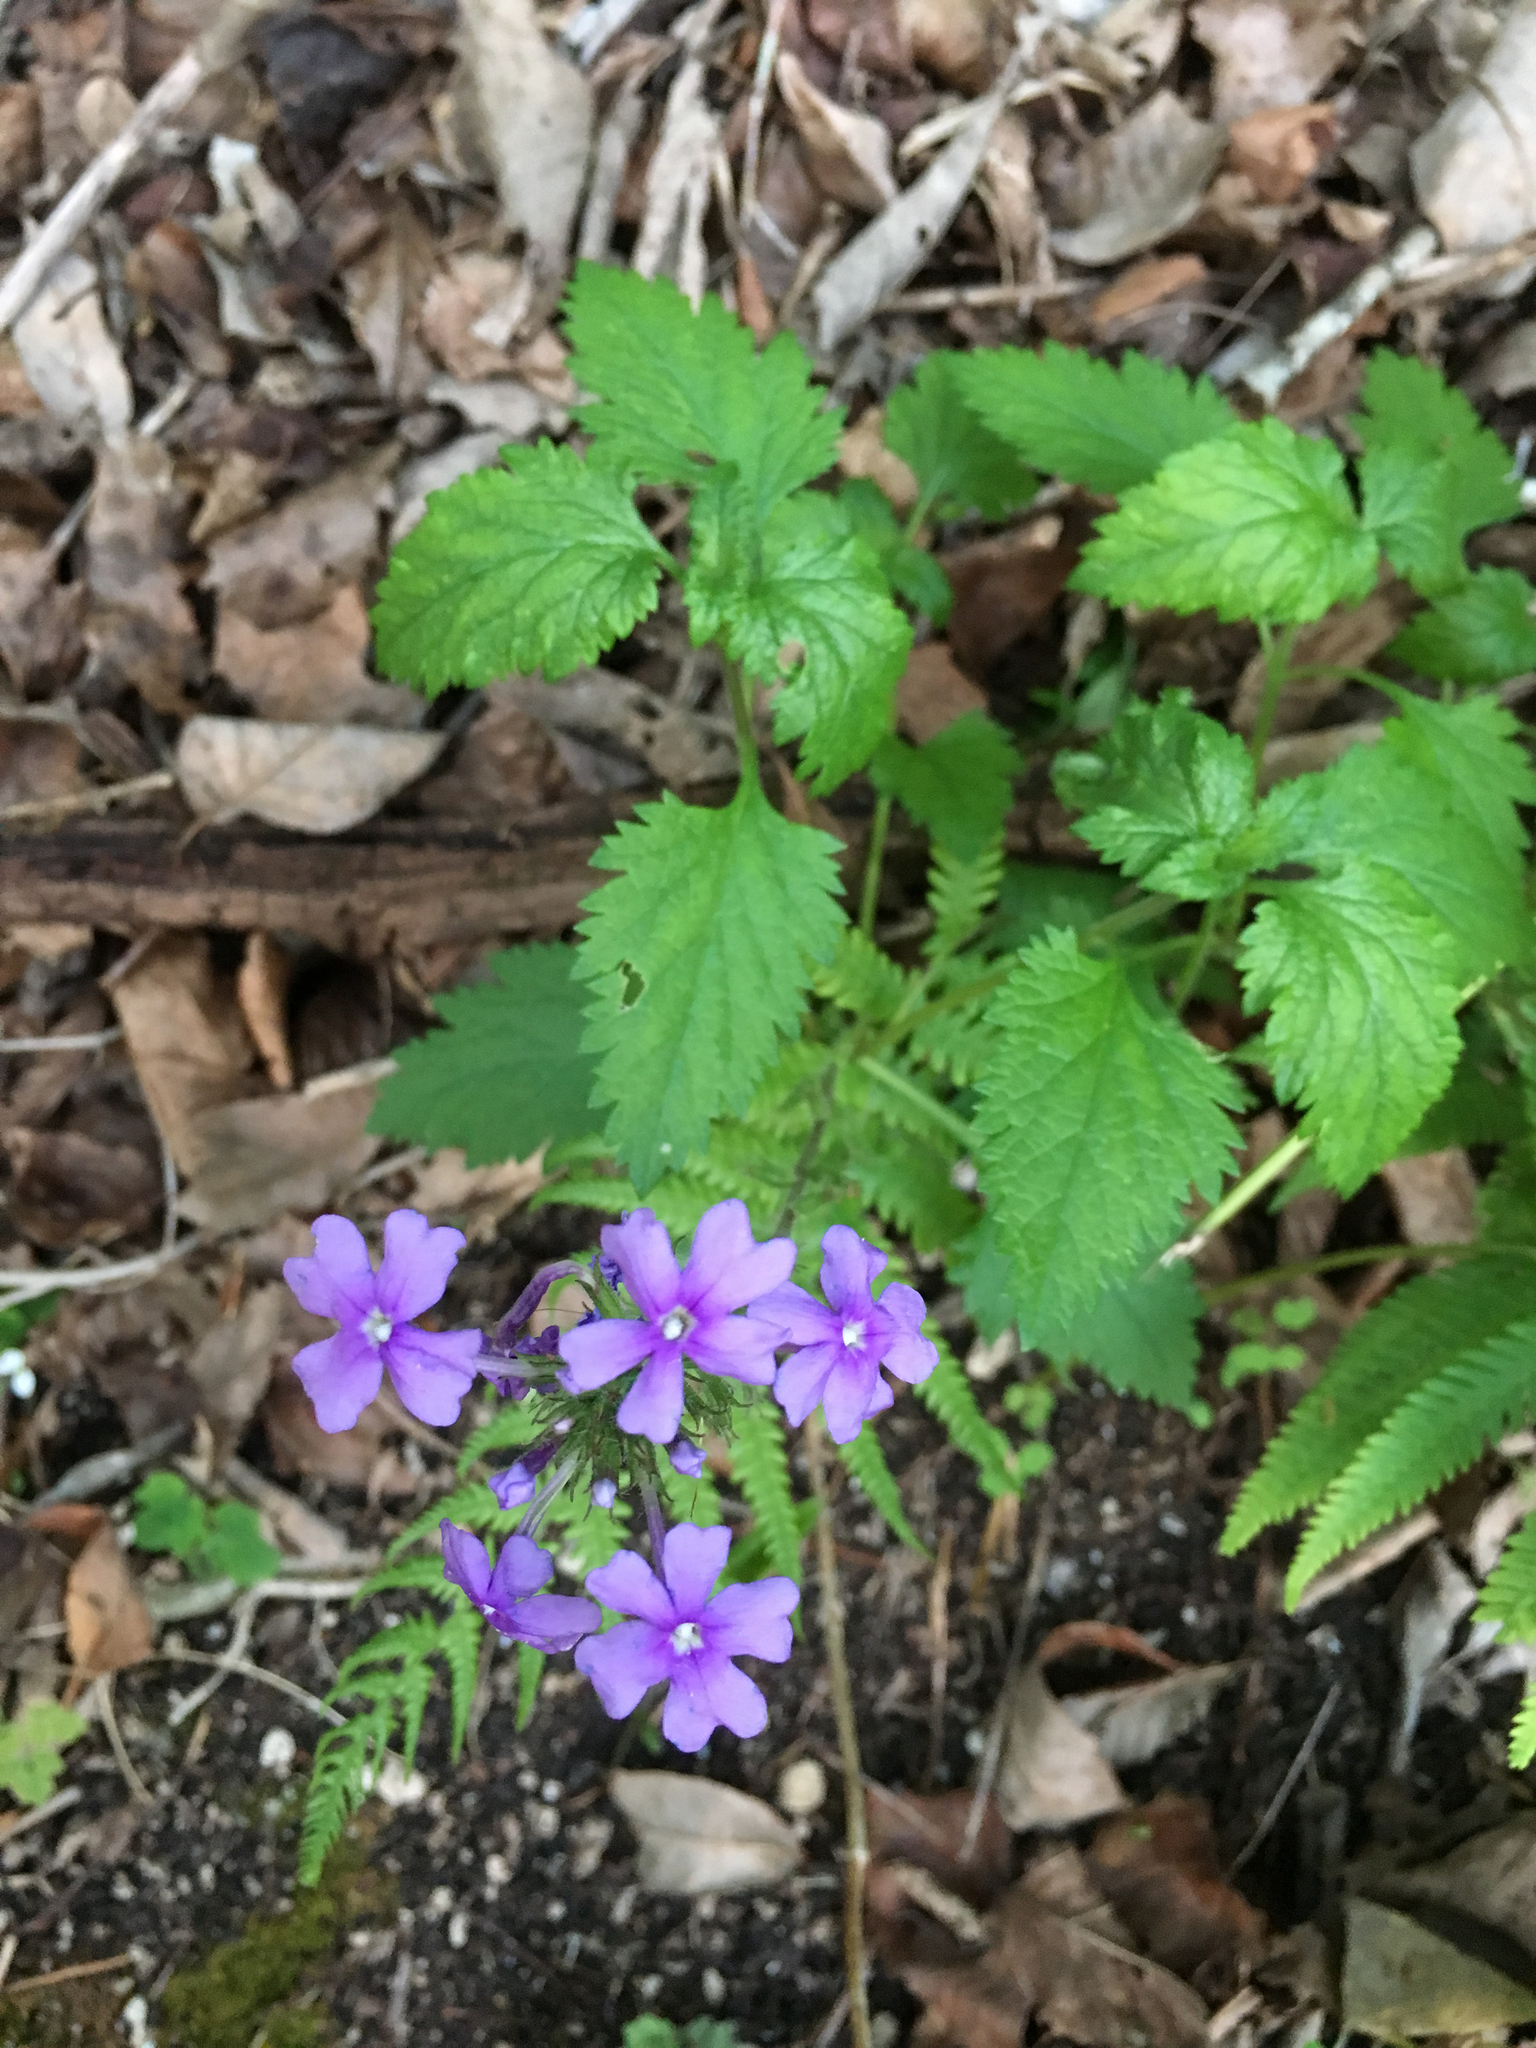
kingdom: Plantae
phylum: Tracheophyta
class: Magnoliopsida
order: Lamiales
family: Verbenaceae
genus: Verbena
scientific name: Verbena canadensis
